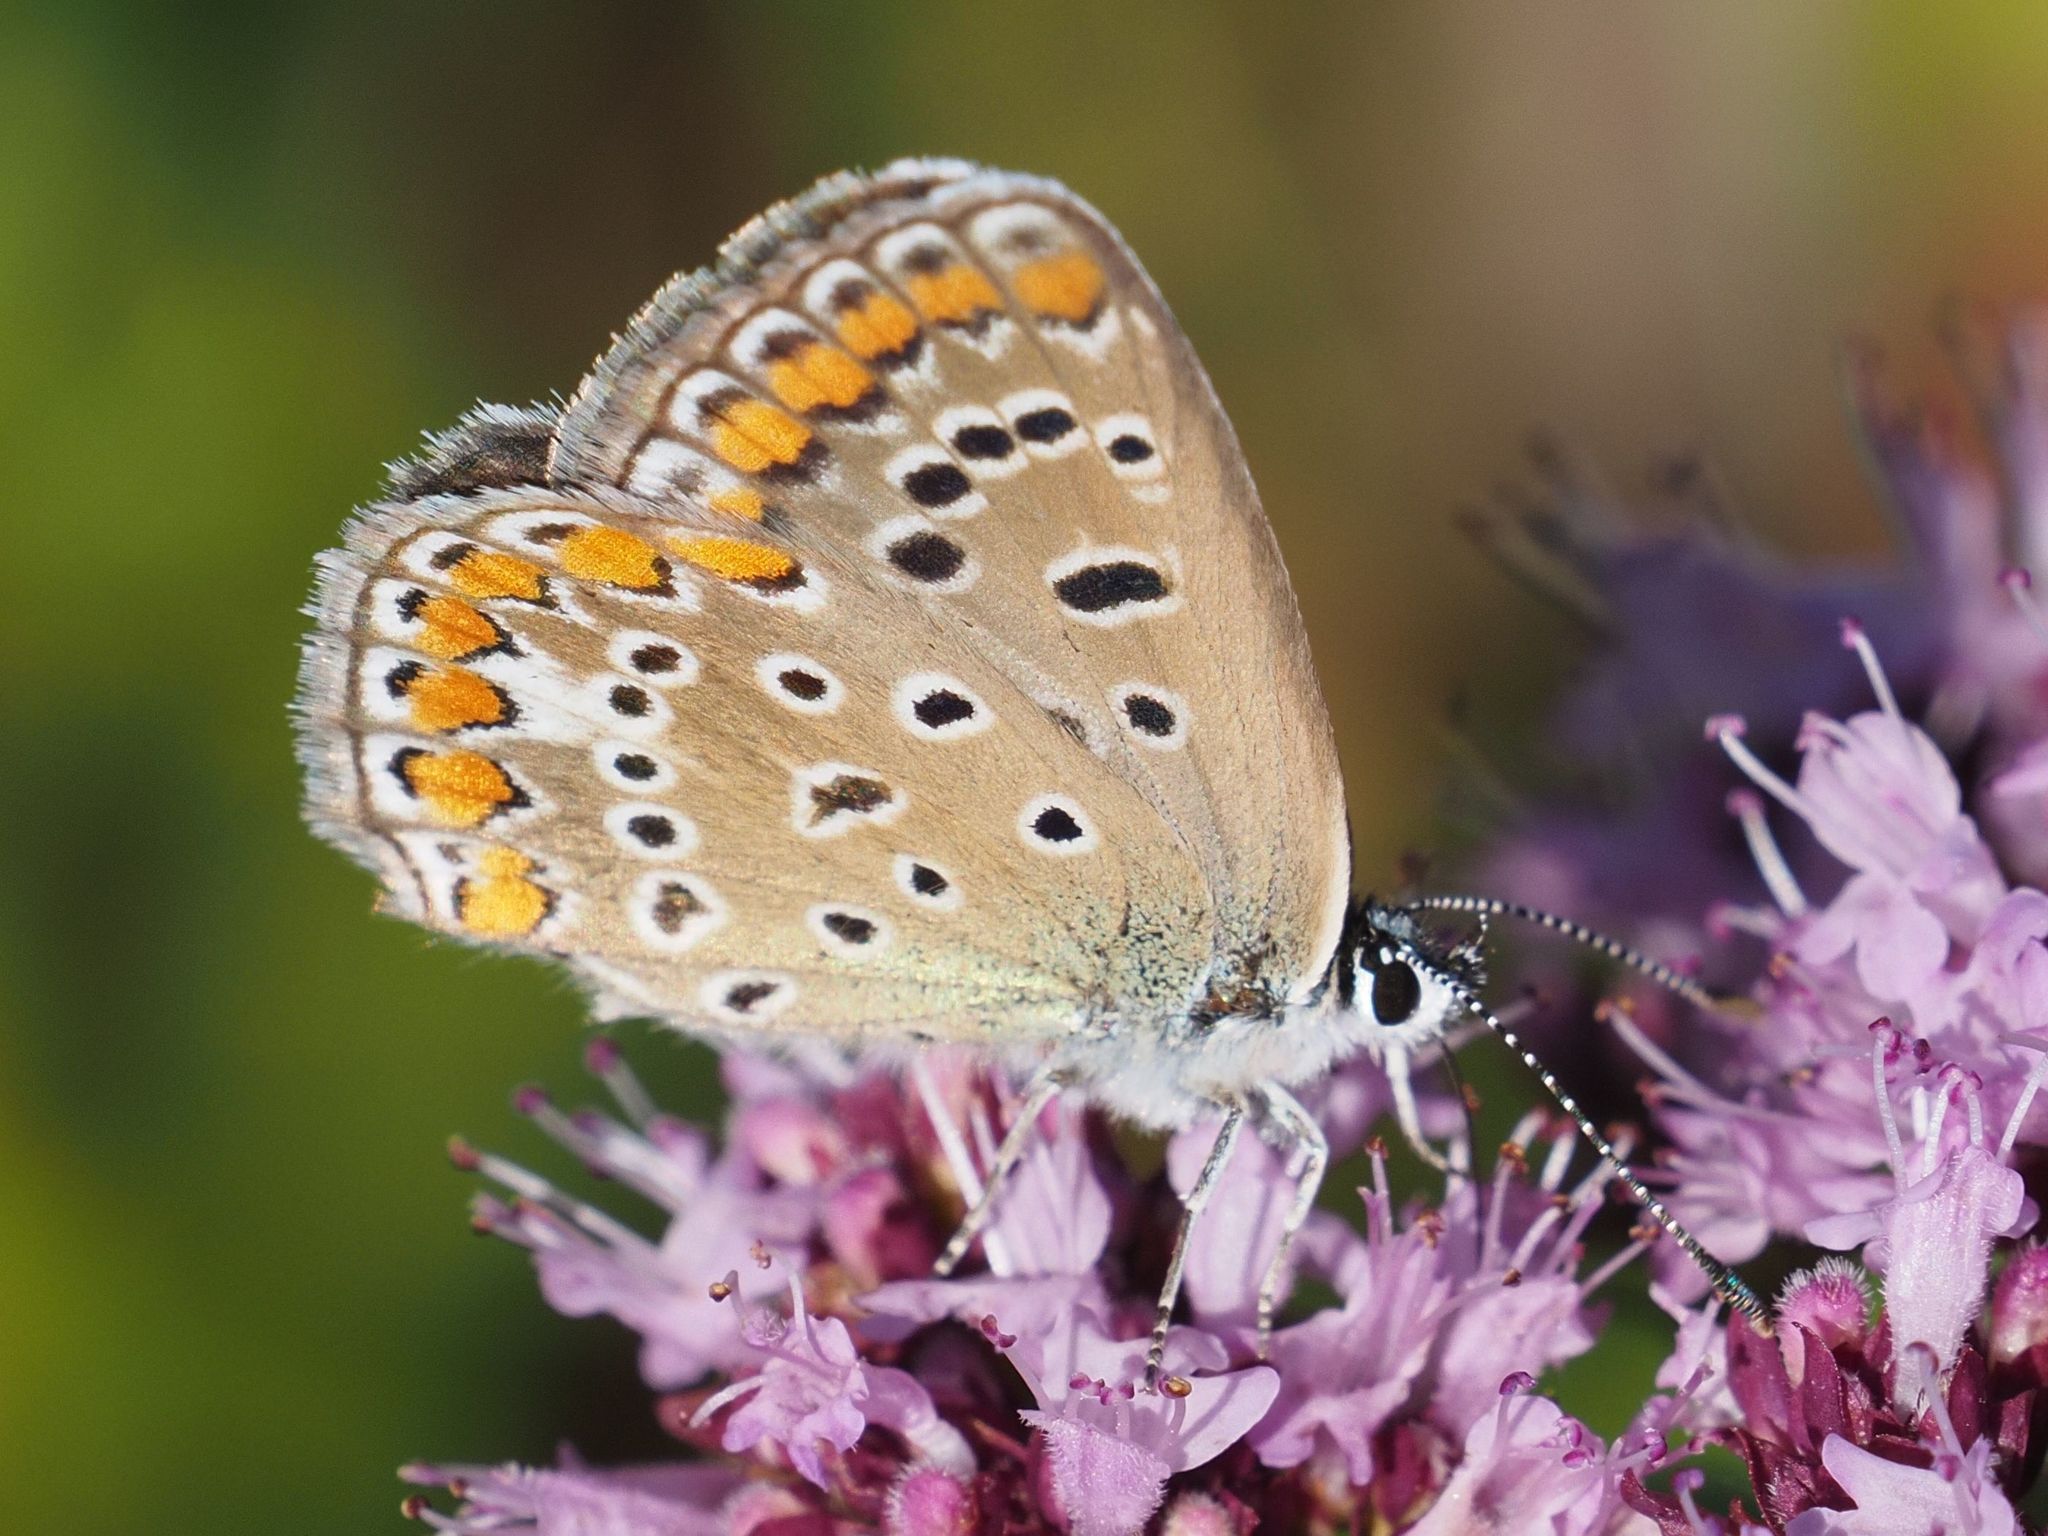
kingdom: Animalia
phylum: Arthropoda
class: Insecta
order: Lepidoptera
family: Lycaenidae
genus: Polyommatus
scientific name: Polyommatus icarus
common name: Common blue
